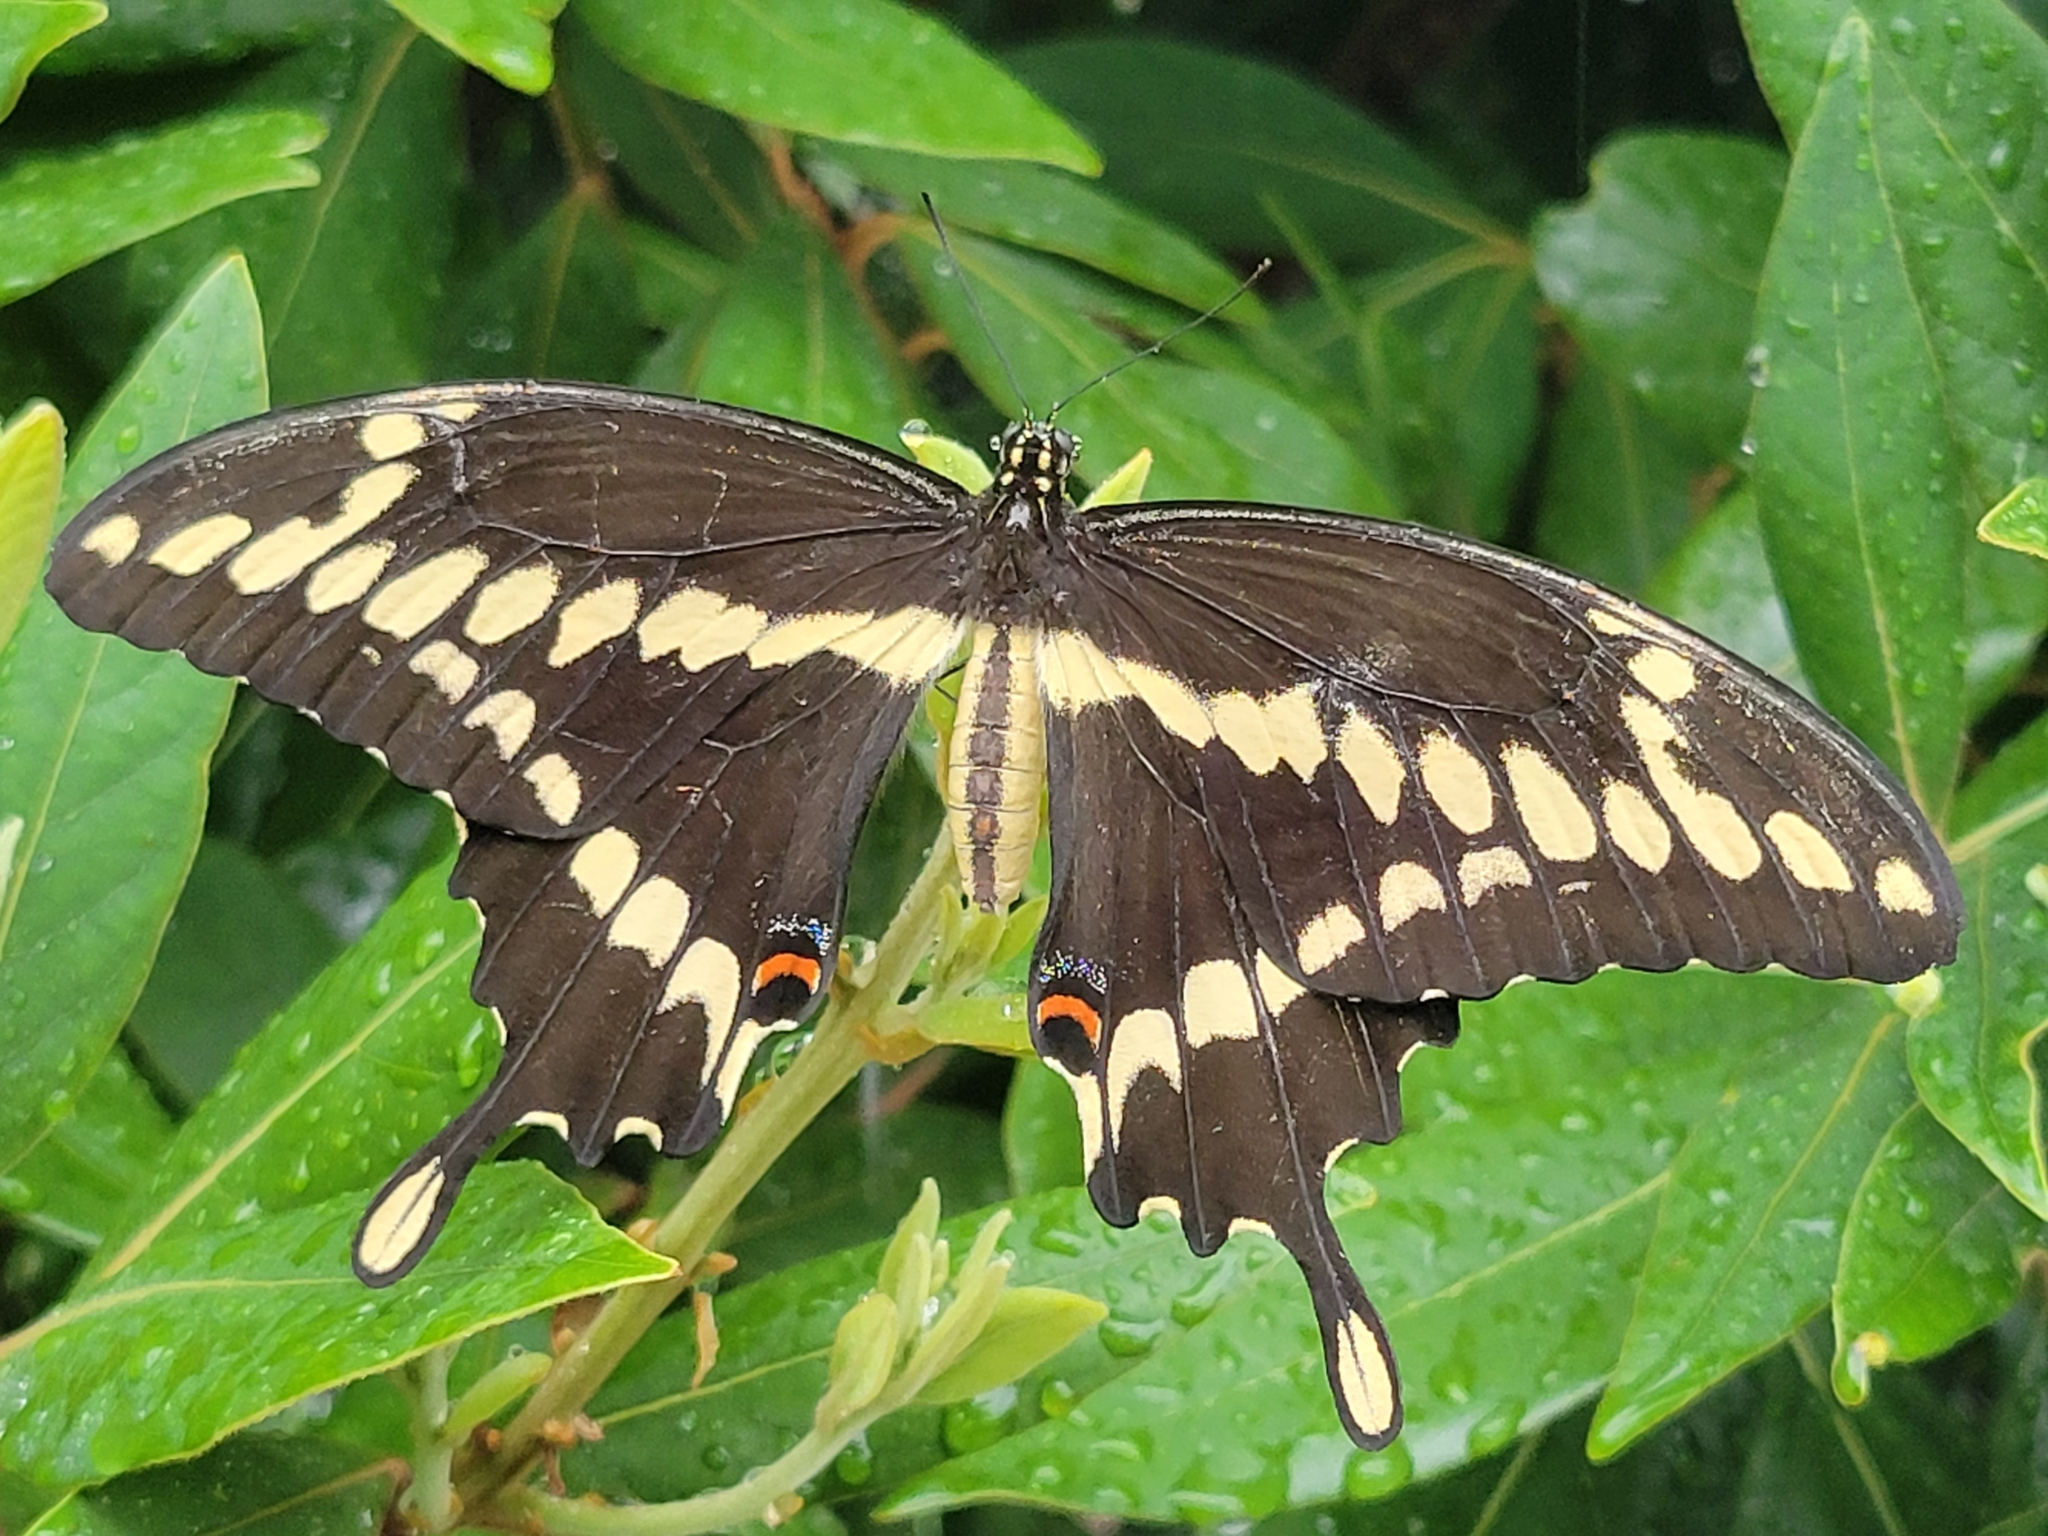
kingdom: Animalia
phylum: Arthropoda
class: Insecta
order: Lepidoptera
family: Papilionidae
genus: Papilio
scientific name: Papilio cresphontes
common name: Giant swallowtail
